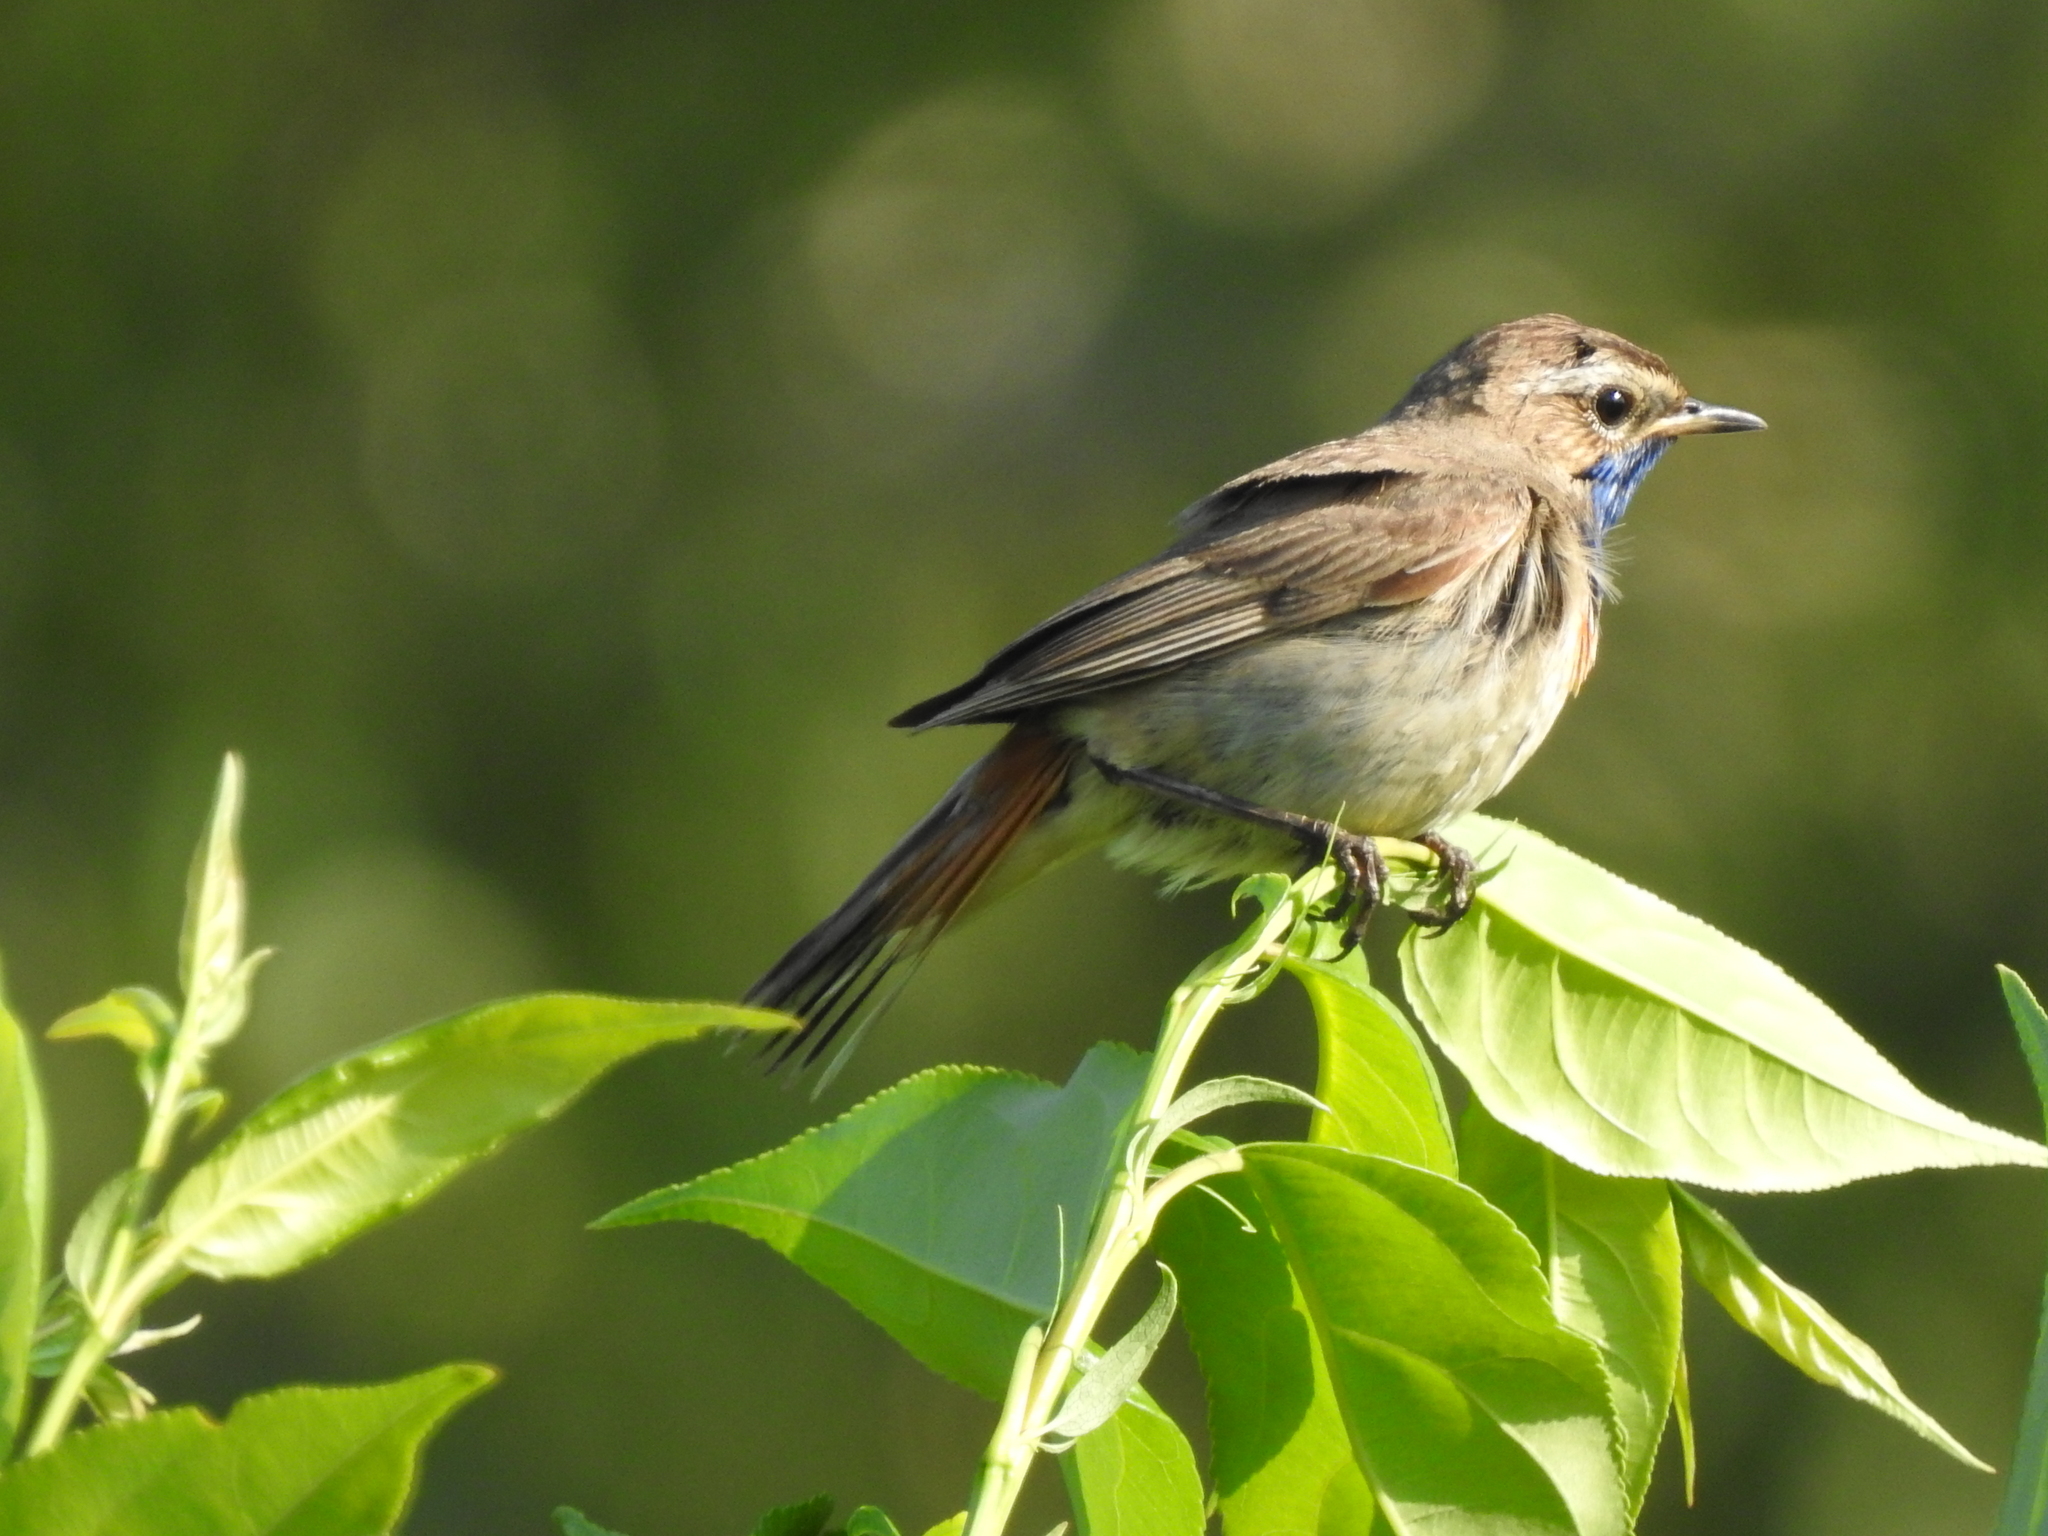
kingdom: Animalia
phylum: Chordata
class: Aves
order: Passeriformes
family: Muscicapidae
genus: Luscinia
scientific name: Luscinia svecica
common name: Bluethroat
